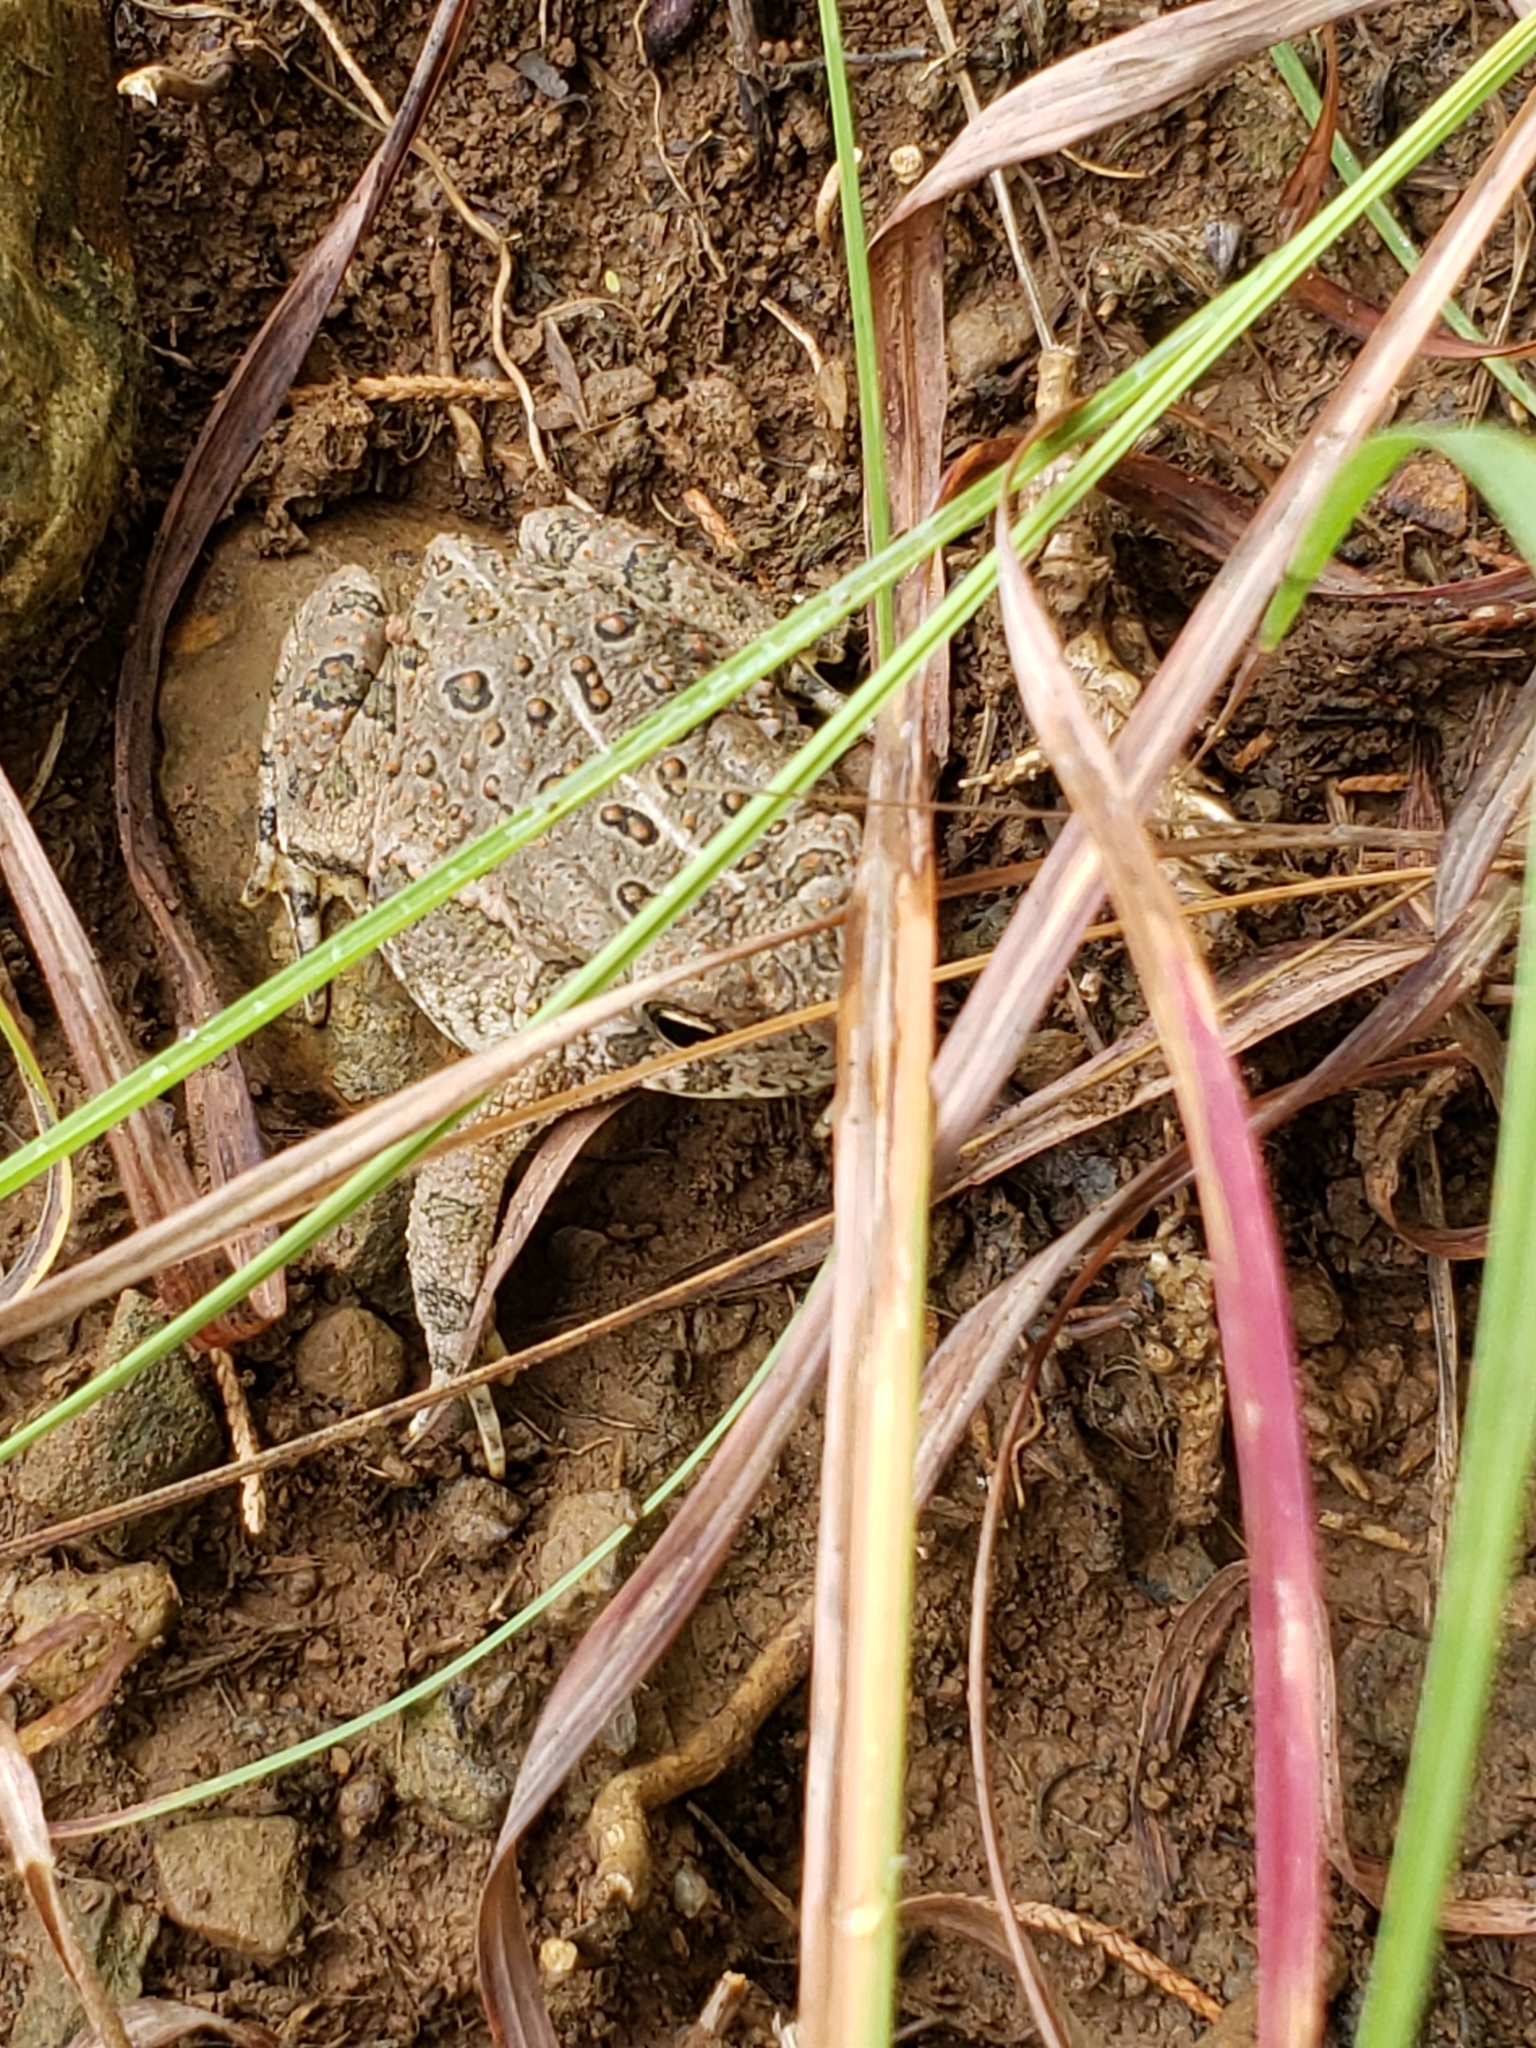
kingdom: Animalia
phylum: Chordata
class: Amphibia
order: Anura
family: Bufonidae
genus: Anaxyrus
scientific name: Anaxyrus woodhousii
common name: Woodhouse's toad
